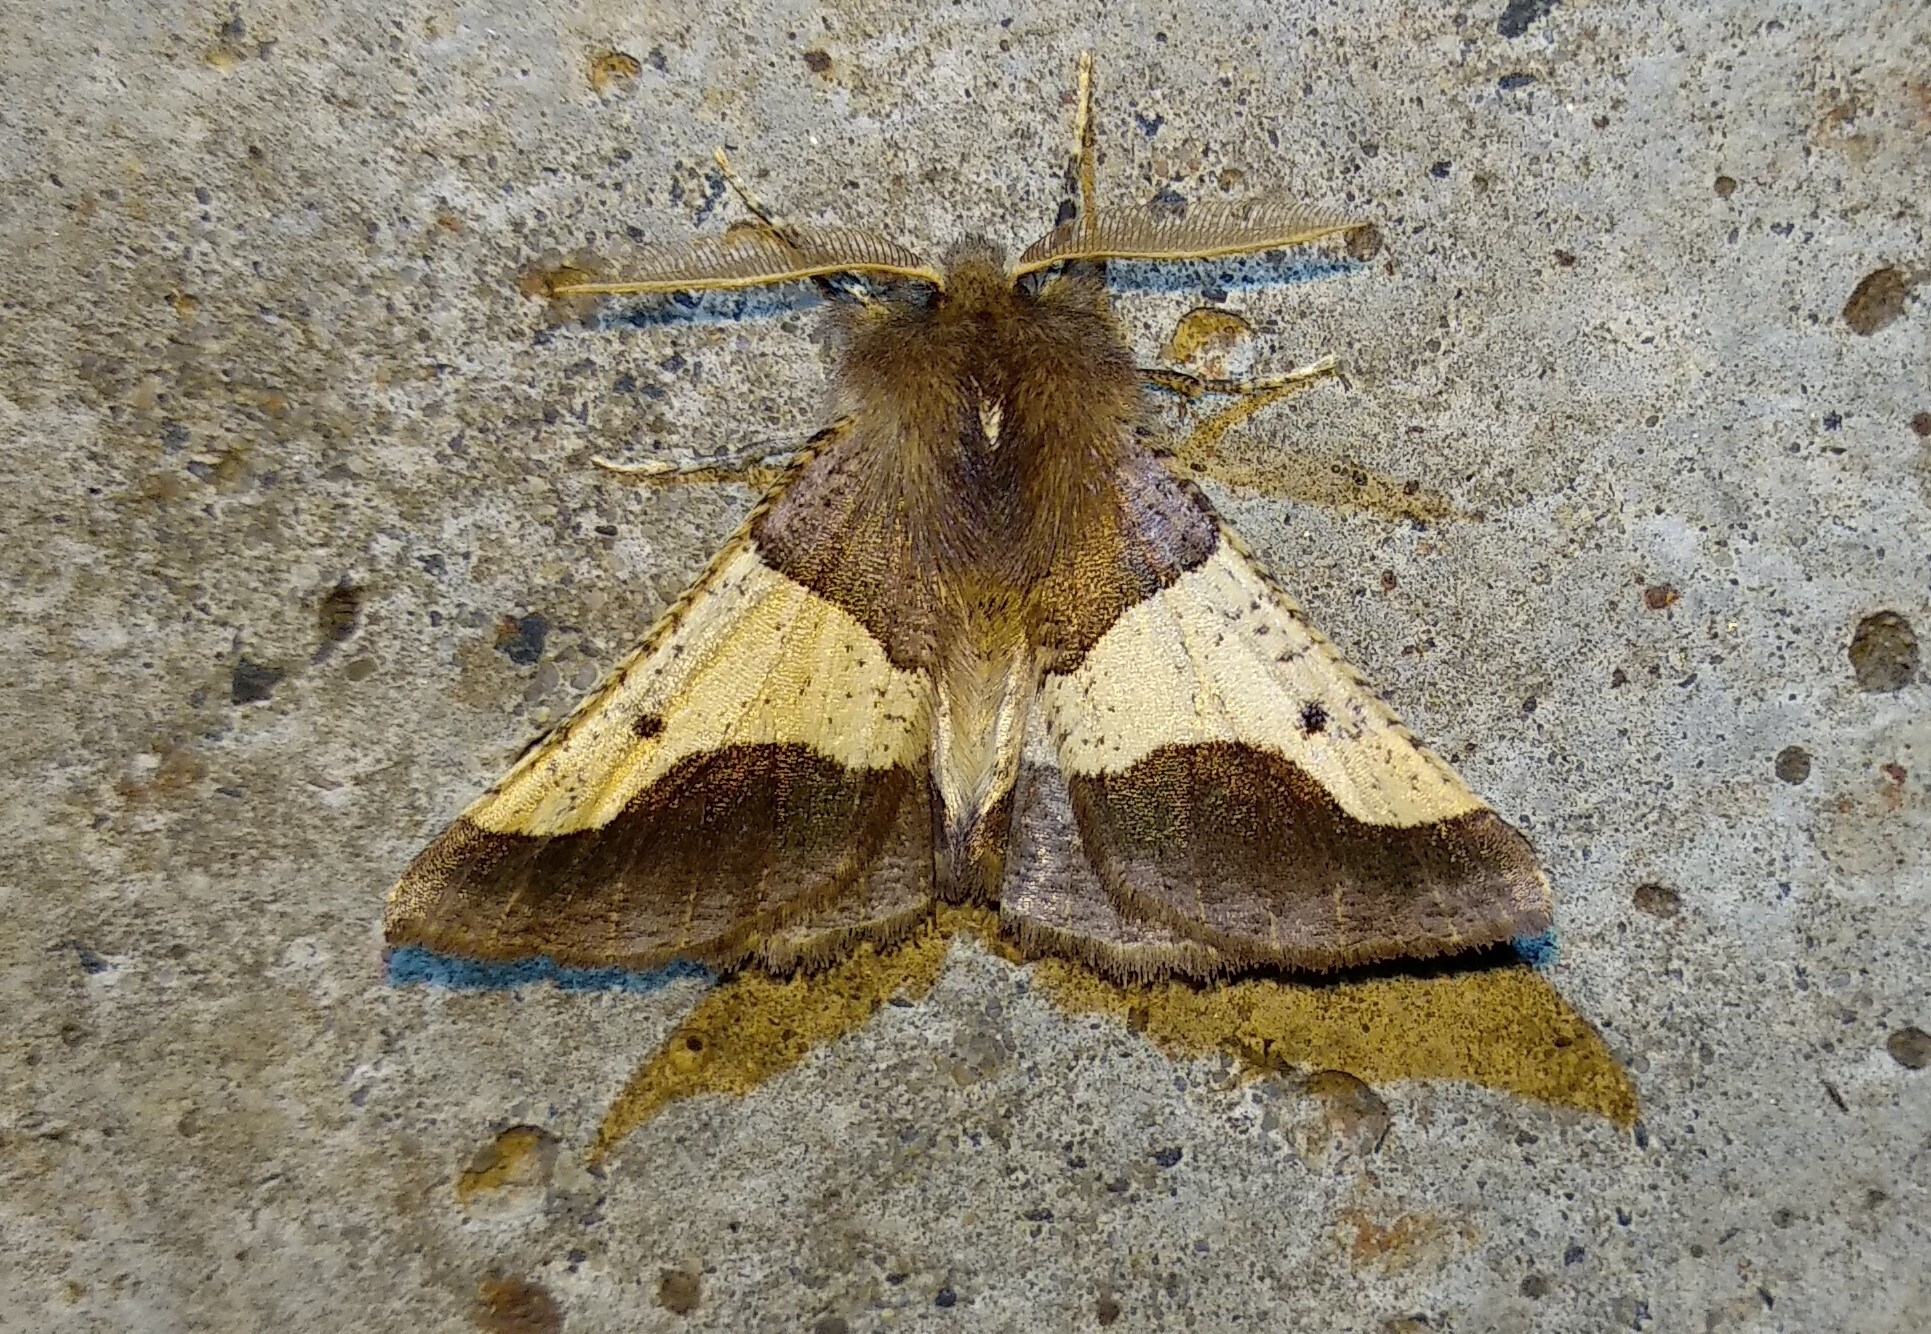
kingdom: Animalia
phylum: Arthropoda
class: Insecta
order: Lepidoptera
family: Geometridae
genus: Wilemania
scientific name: Wilemania nitobei
